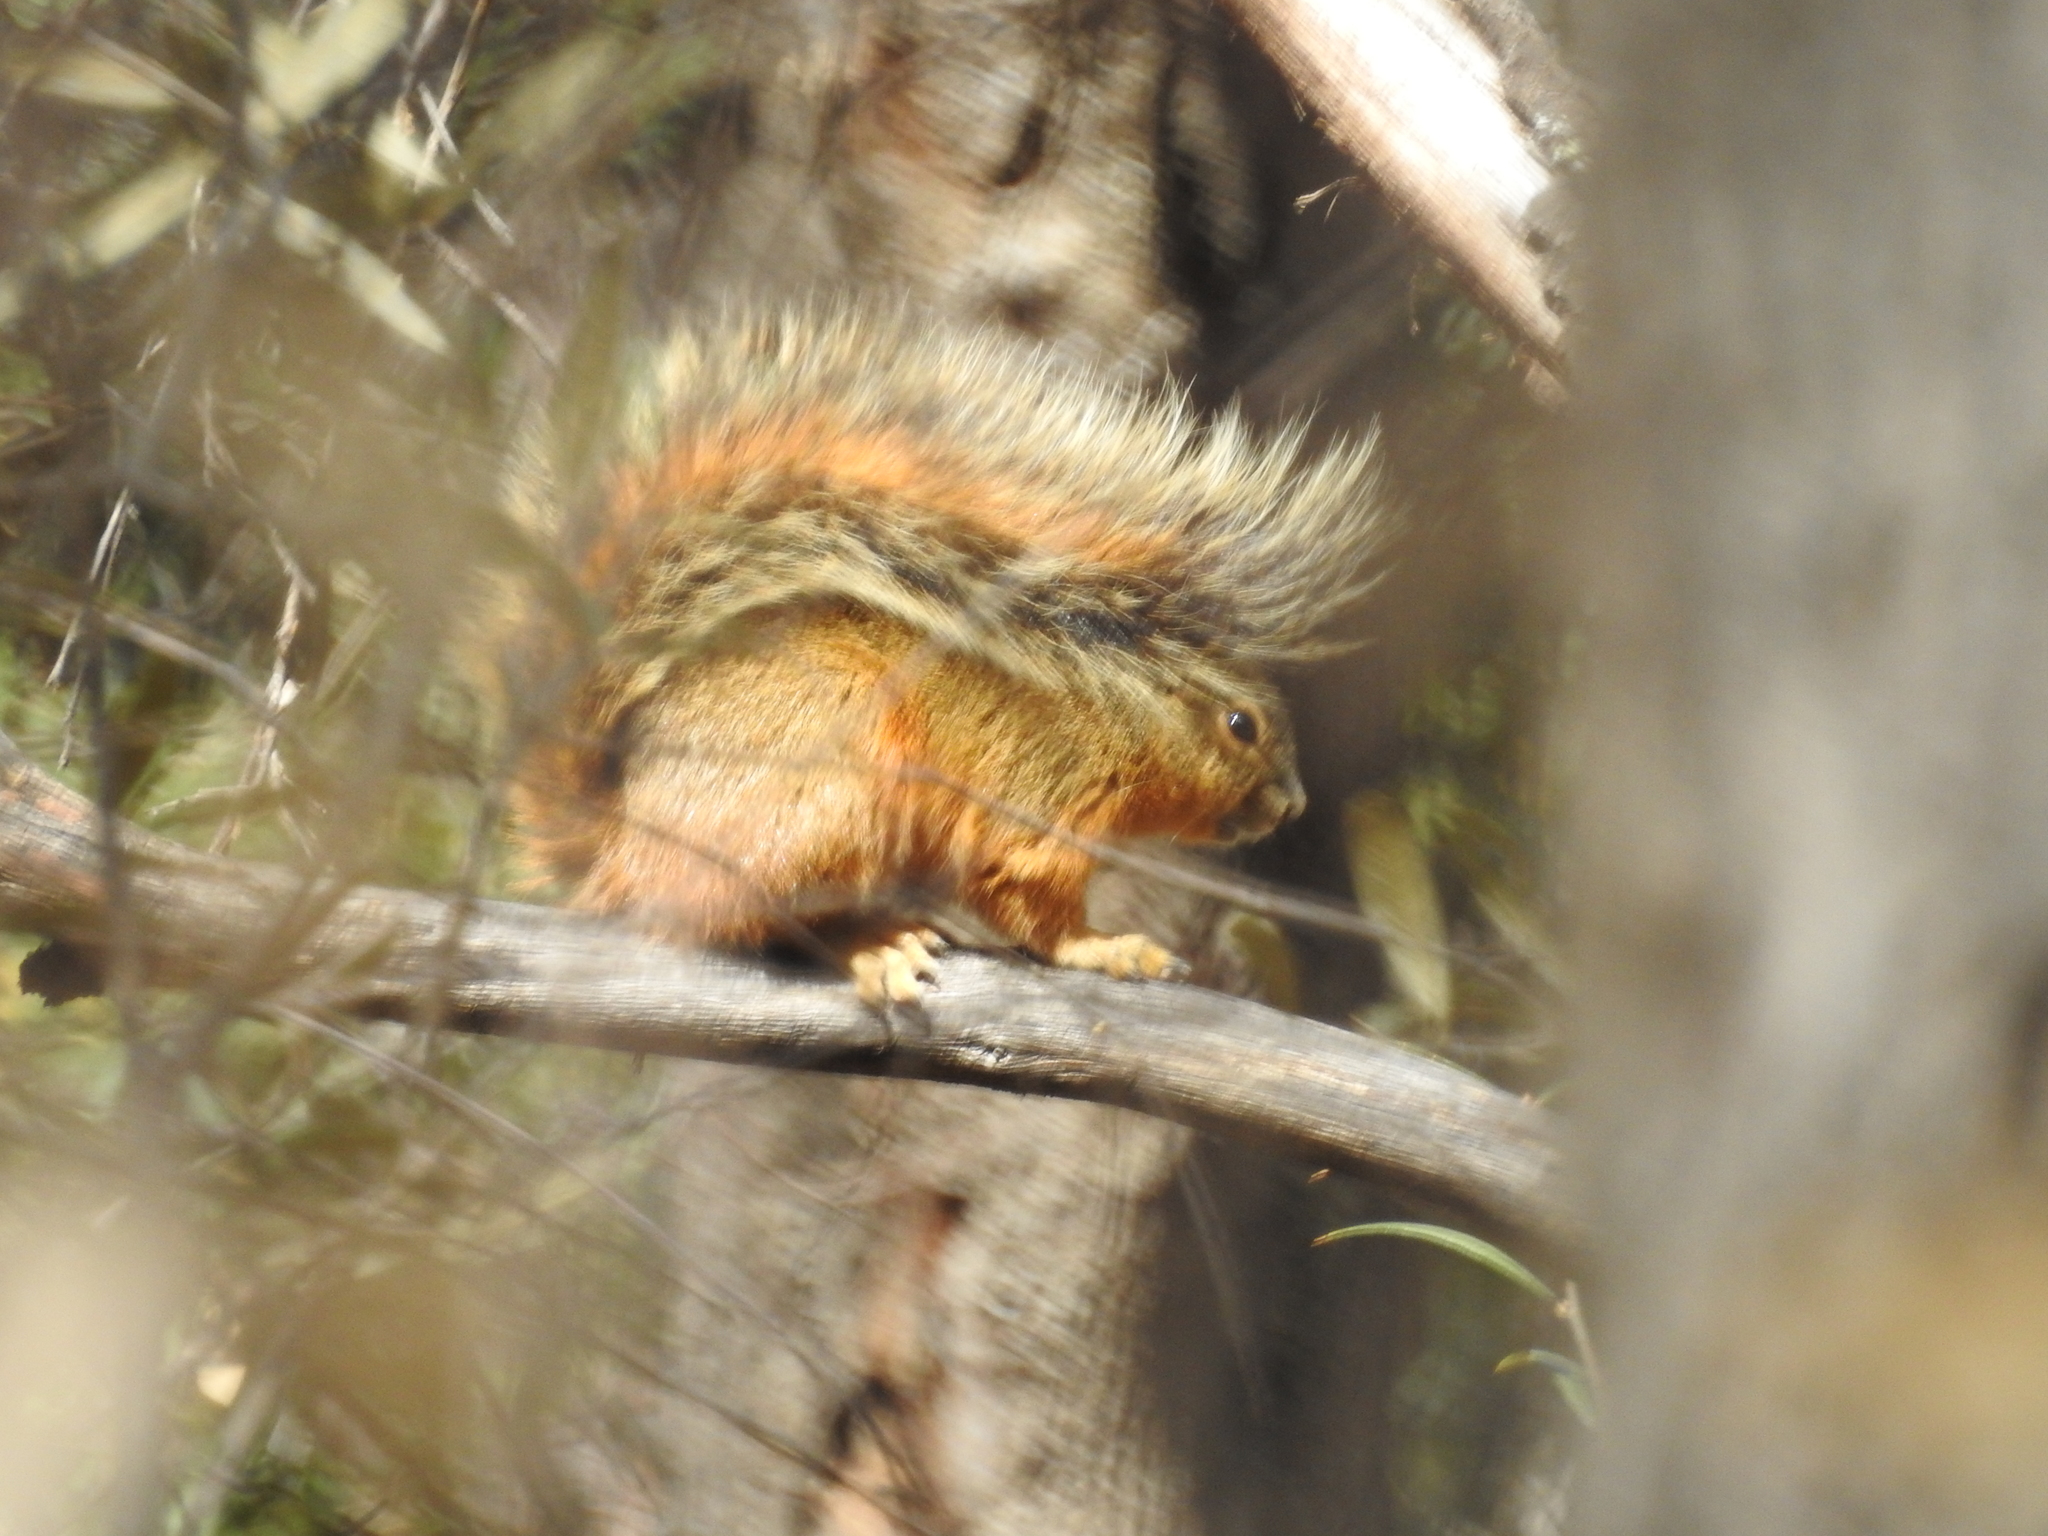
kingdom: Animalia
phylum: Chordata
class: Mammalia
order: Rodentia
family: Sciuridae
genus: Sciurus
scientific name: Sciurus nayaritensis
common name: Mexican fox squirrel
